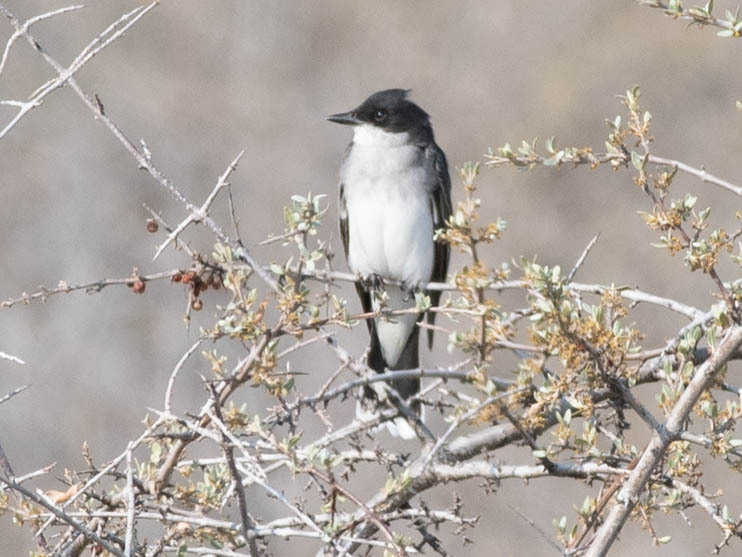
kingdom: Animalia
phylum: Chordata
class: Aves
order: Passeriformes
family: Tyrannidae
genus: Tyrannus
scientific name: Tyrannus tyrannus
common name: Eastern kingbird
